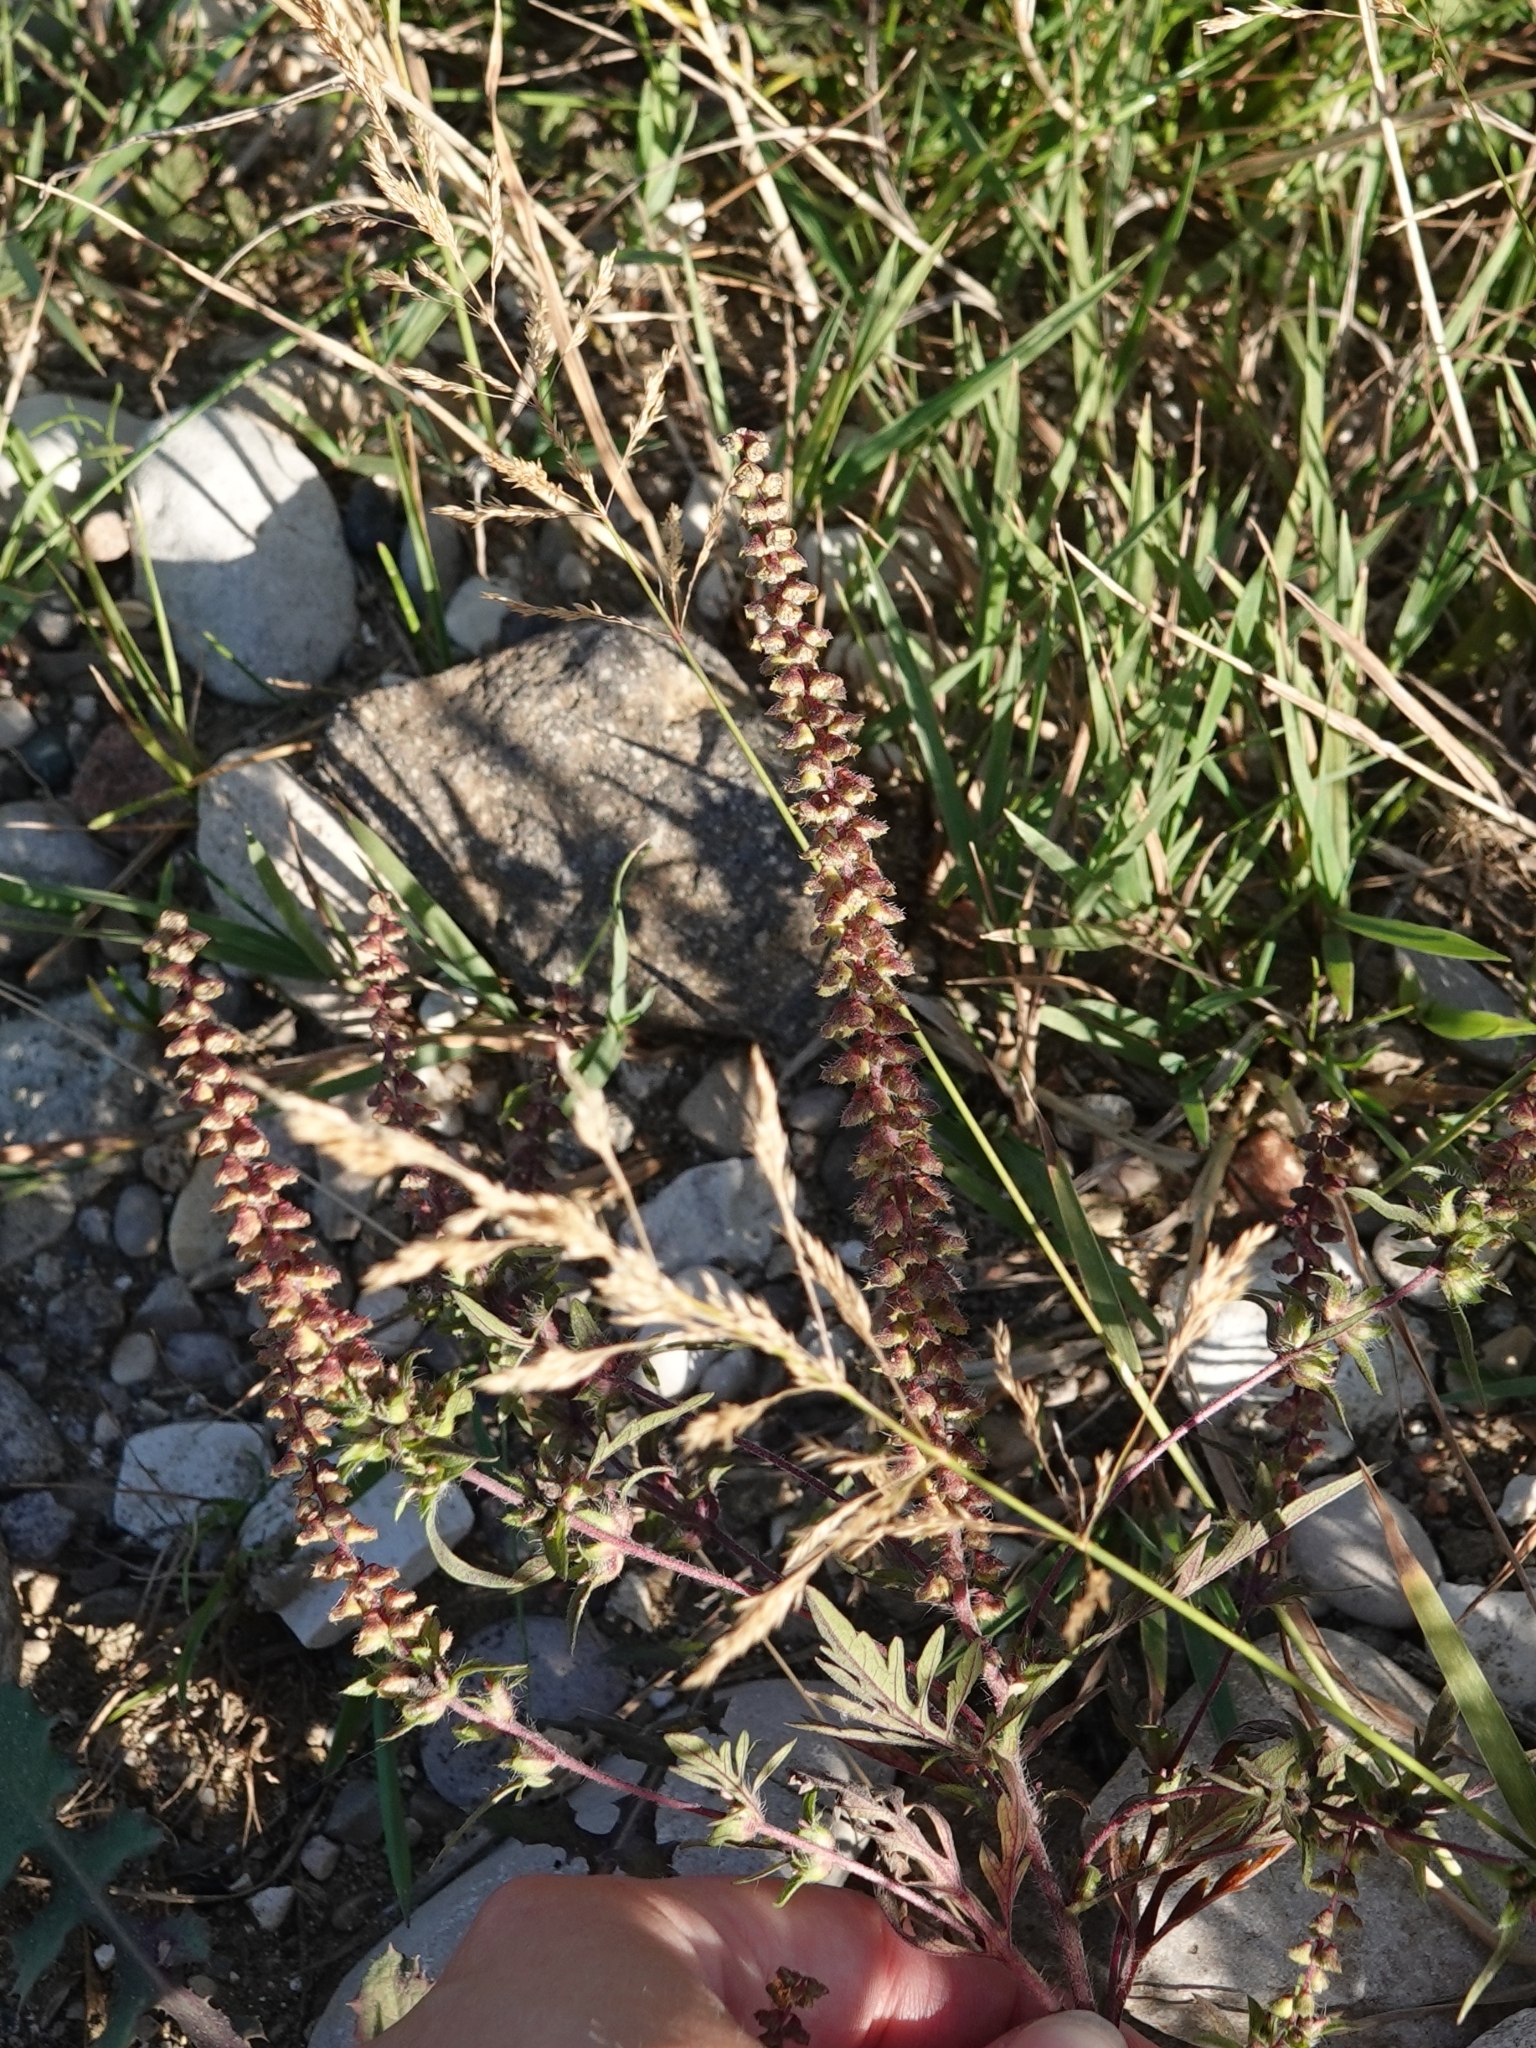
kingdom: Plantae
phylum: Tracheophyta
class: Magnoliopsida
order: Asterales
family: Asteraceae
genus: Ambrosia
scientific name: Ambrosia artemisiifolia
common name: Annual ragweed
